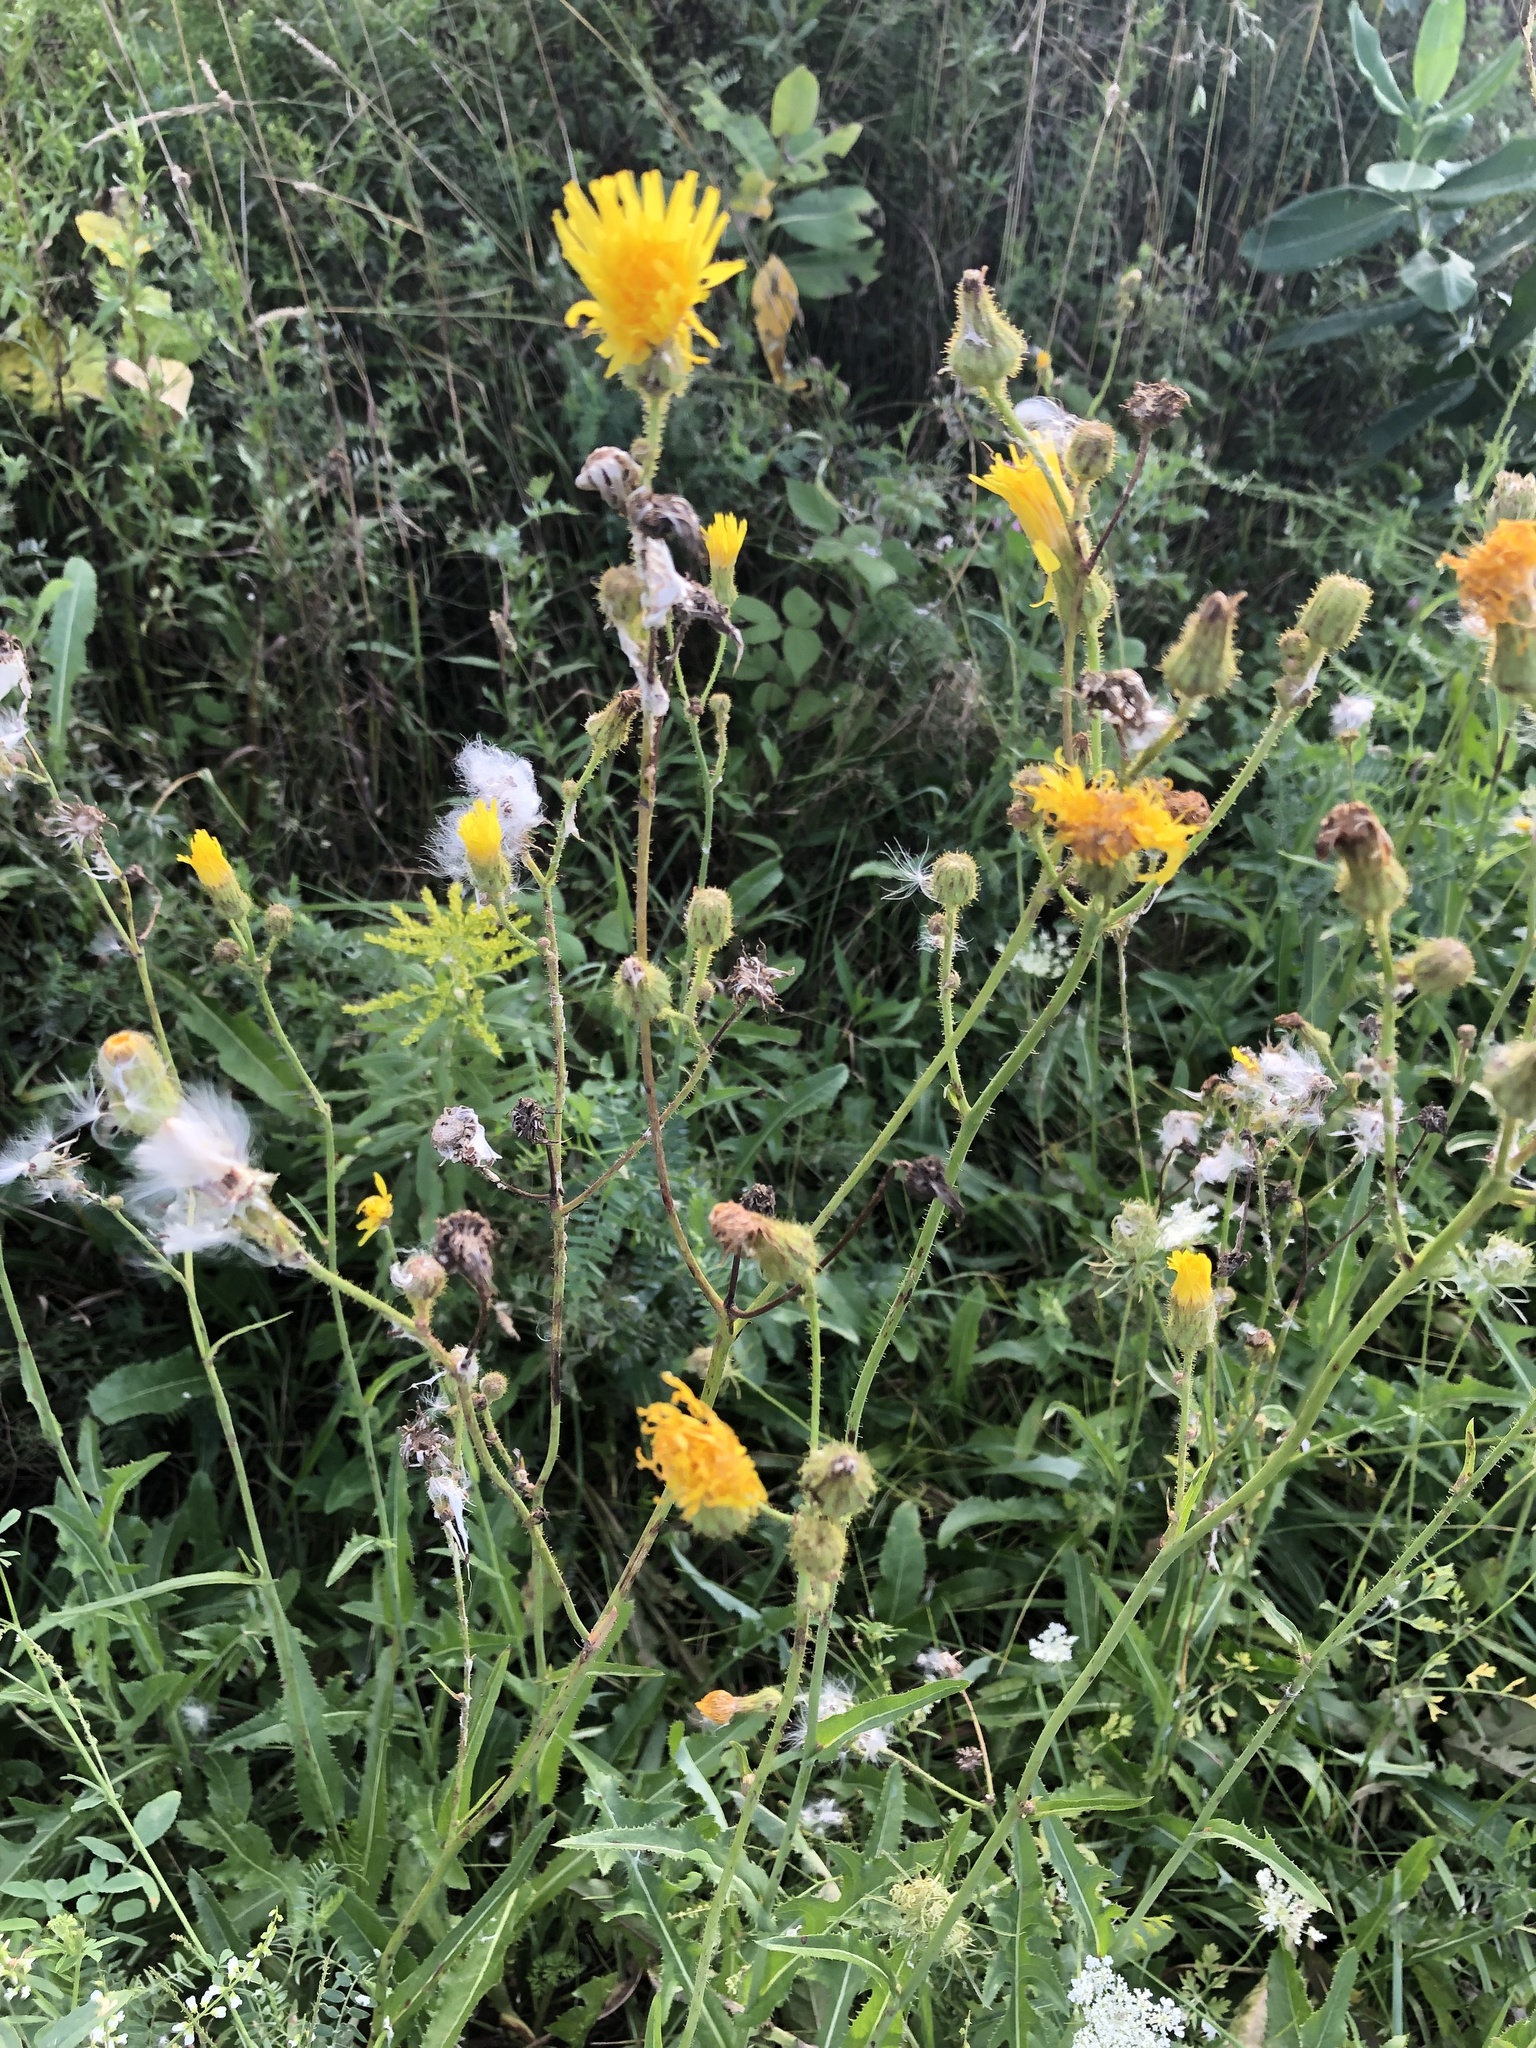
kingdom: Plantae
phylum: Tracheophyta
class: Magnoliopsida
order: Asterales
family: Asteraceae
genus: Sonchus
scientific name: Sonchus arvensis
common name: Perennial sow-thistle
